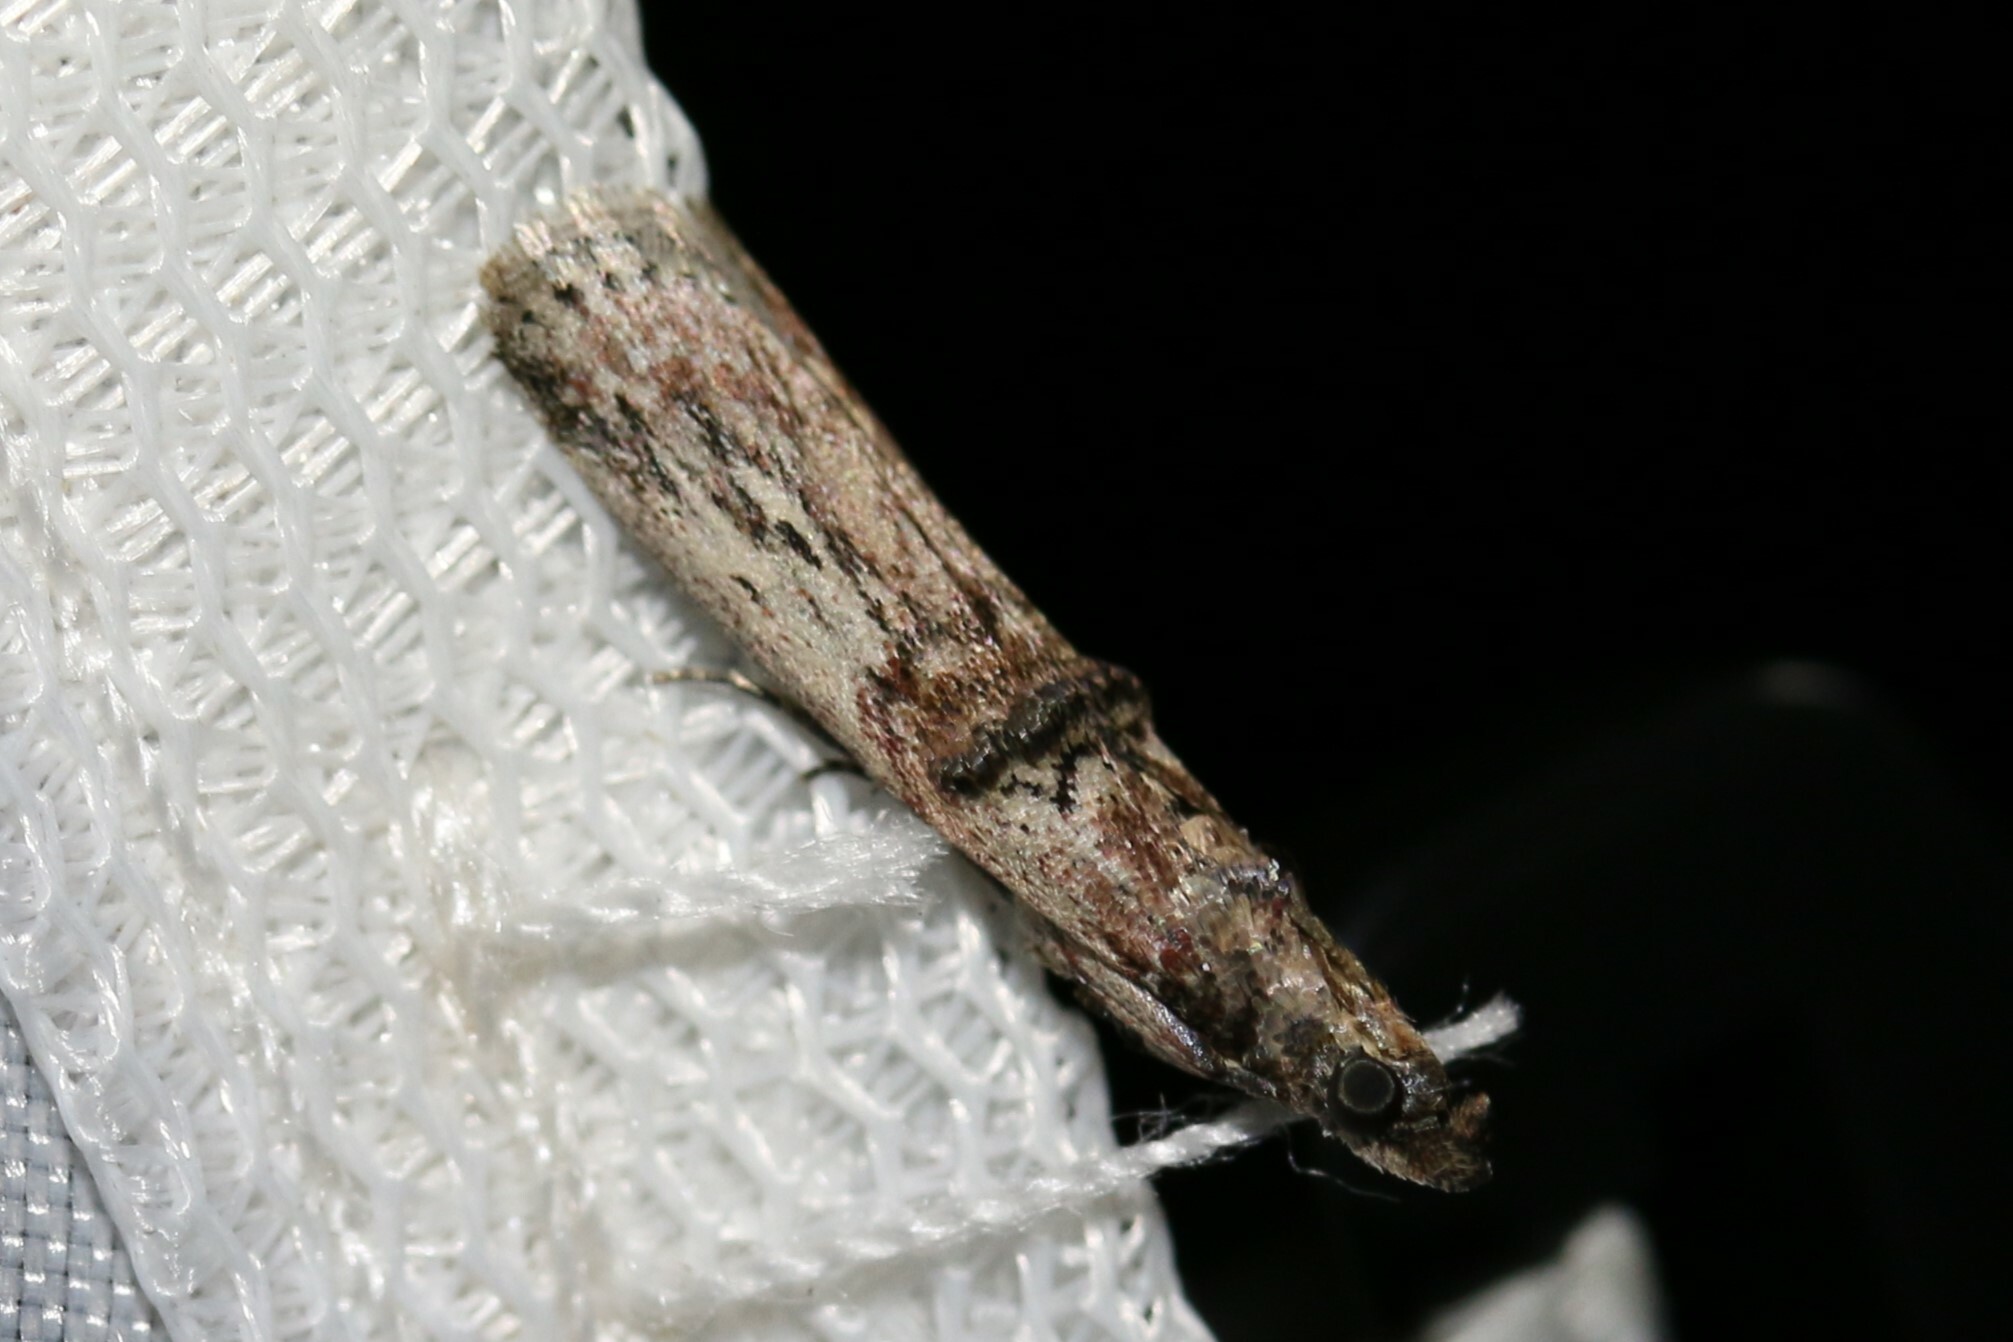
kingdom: Animalia
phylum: Arthropoda
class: Insecta
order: Lepidoptera
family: Pyralidae
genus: Nephopterix
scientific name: Nephopterix angustella
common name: Spindle knot-horn
